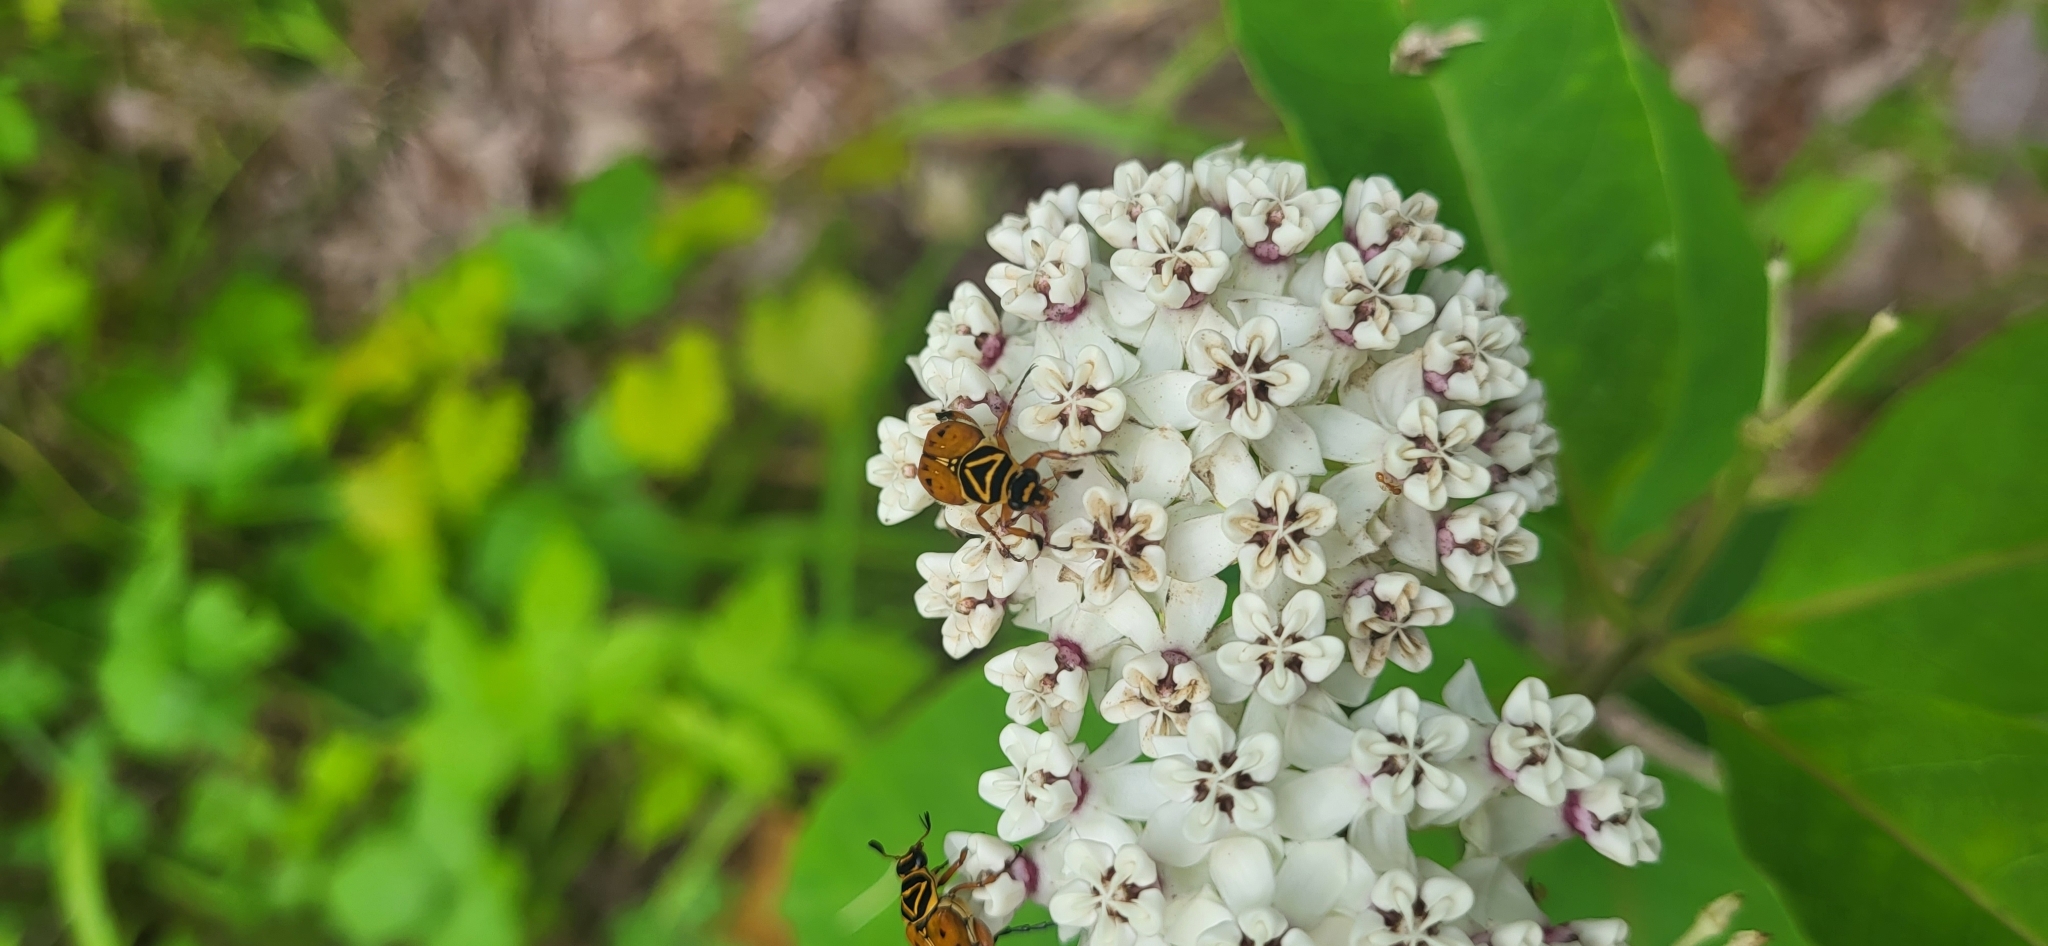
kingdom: Animalia
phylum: Arthropoda
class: Insecta
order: Coleoptera
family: Scarabaeidae
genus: Trigonopeltastes
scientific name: Trigonopeltastes delta
